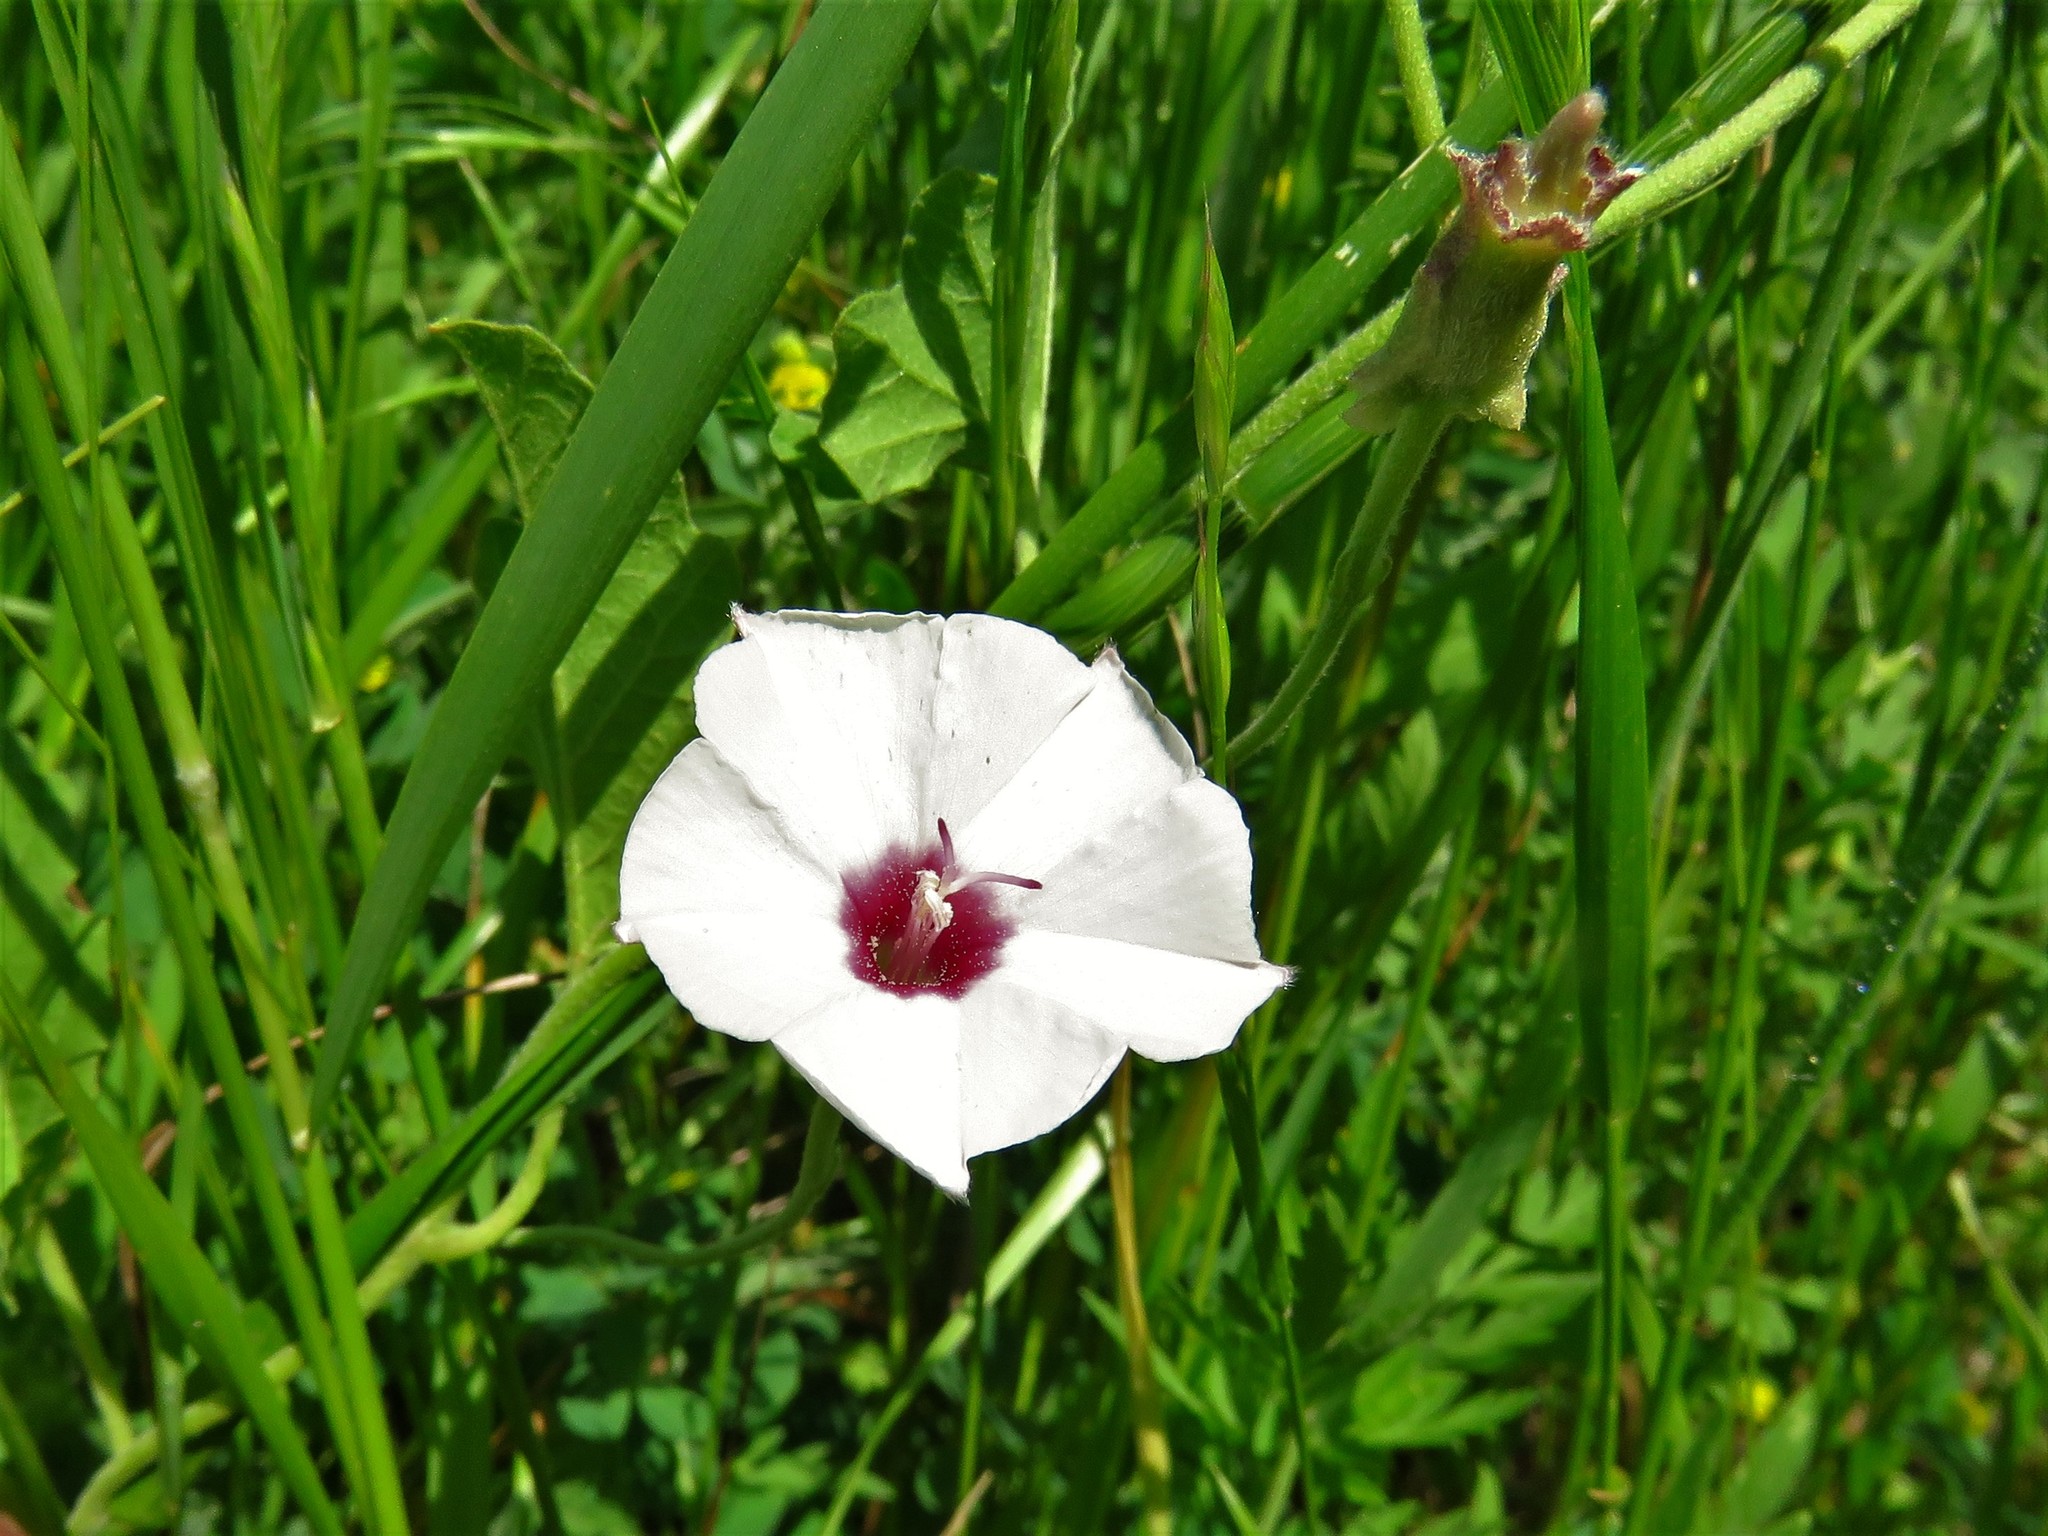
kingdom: Plantae
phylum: Tracheophyta
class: Magnoliopsida
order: Solanales
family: Convolvulaceae
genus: Convolvulus
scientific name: Convolvulus equitans
